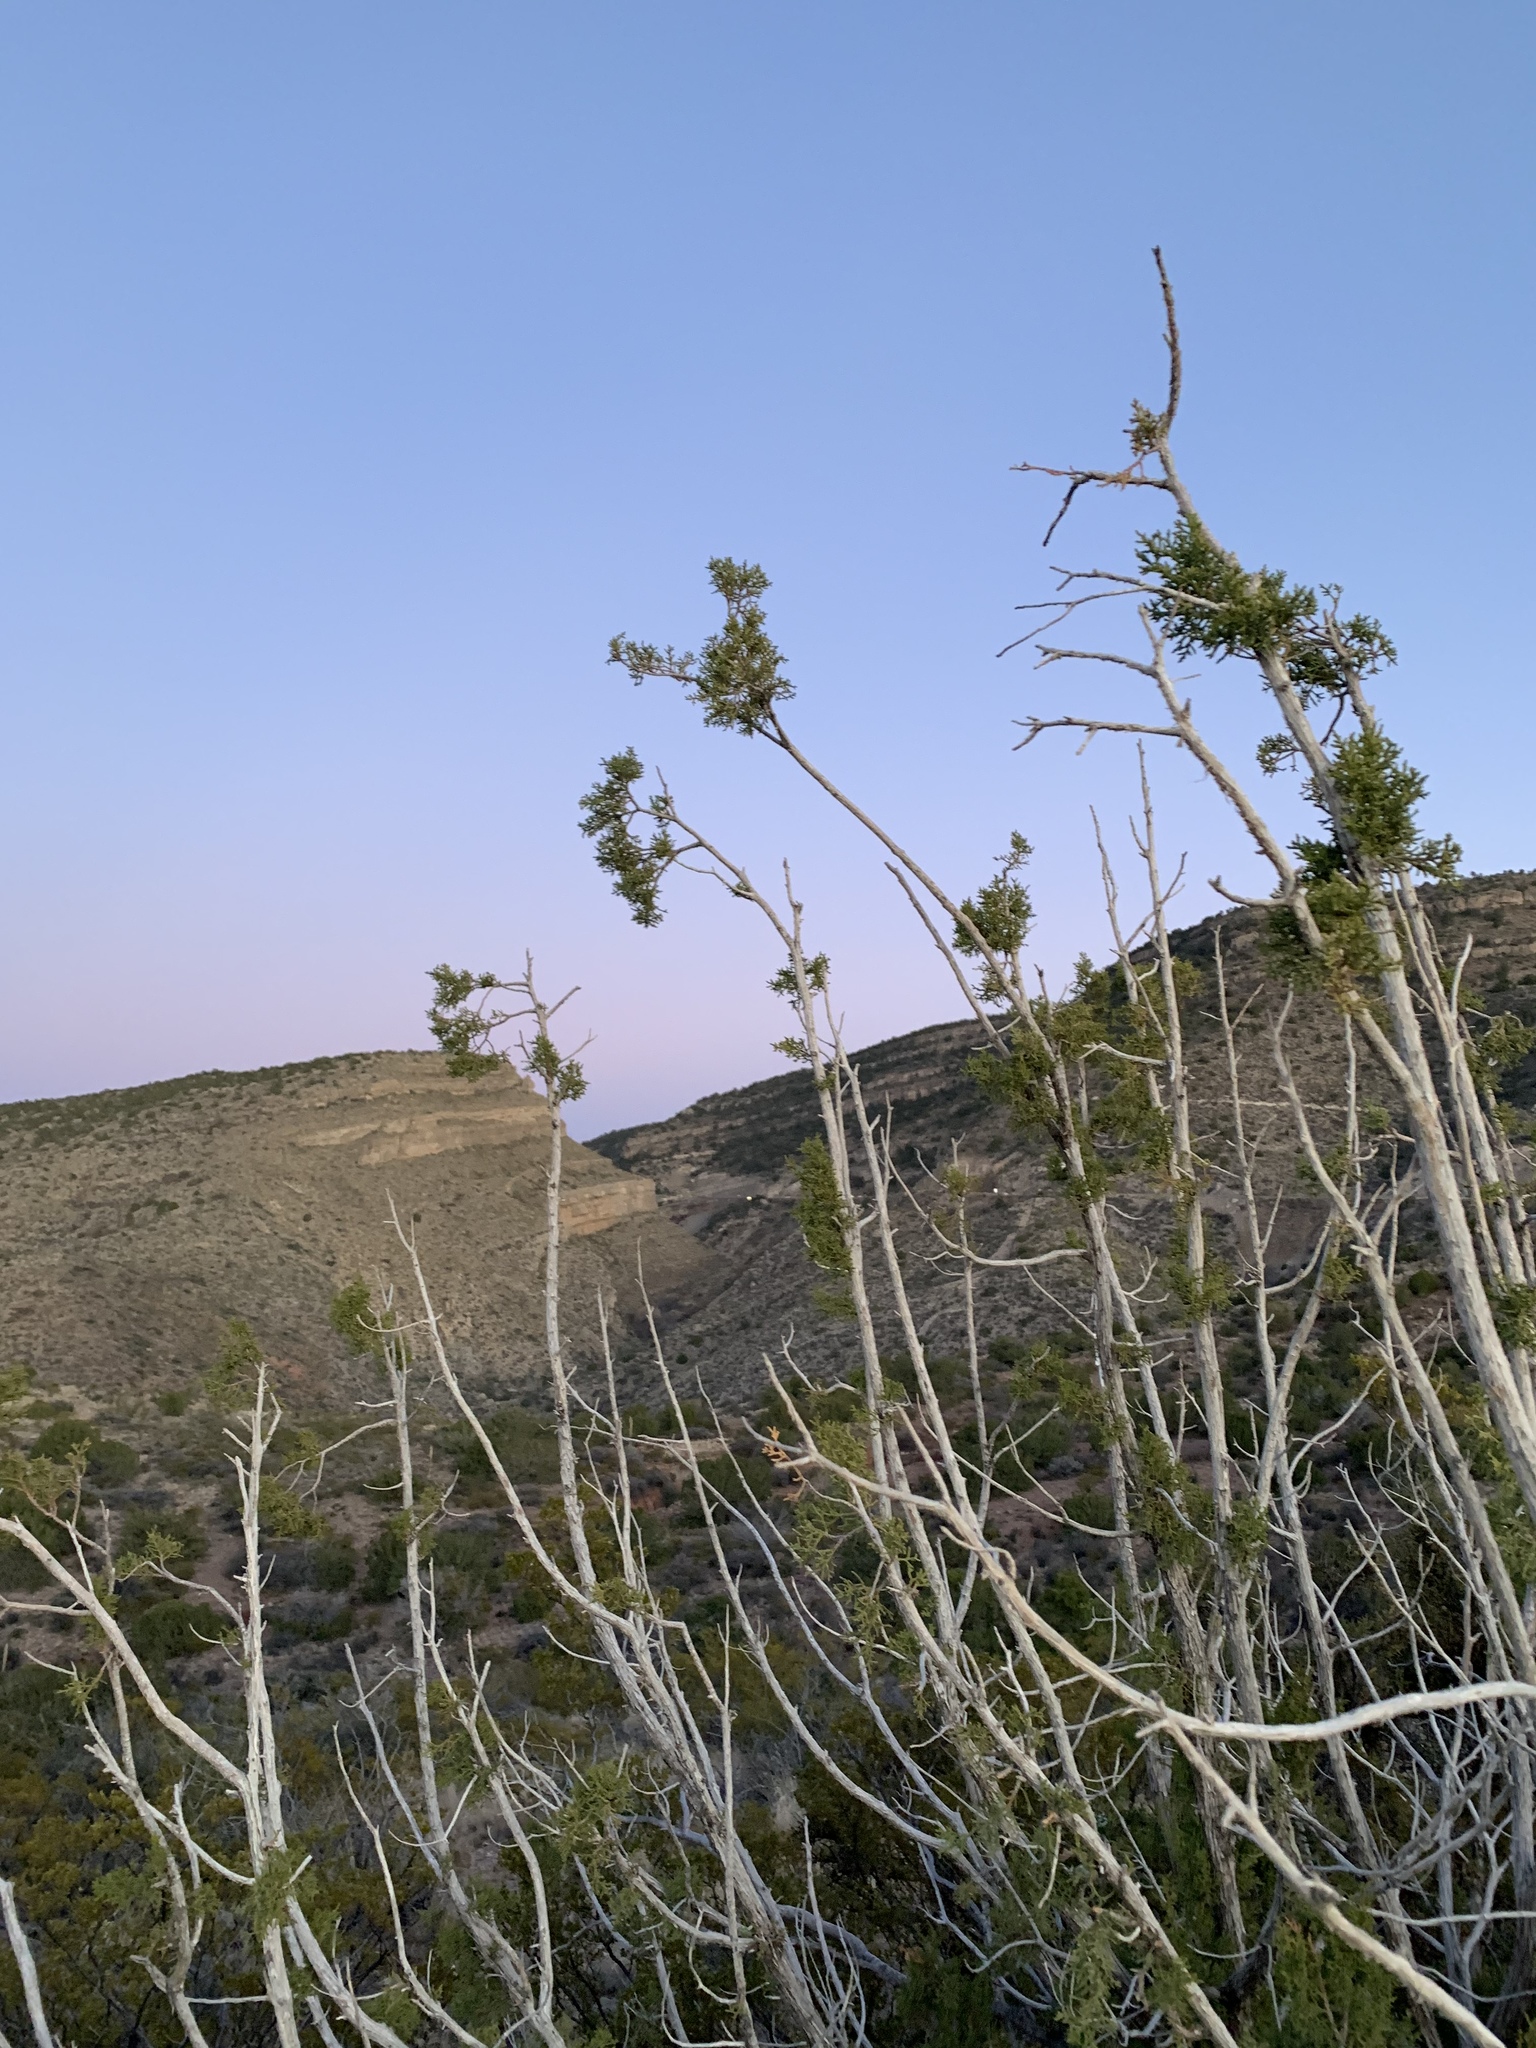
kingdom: Plantae
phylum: Tracheophyta
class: Pinopsida
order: Pinales
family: Cupressaceae
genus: Juniperus
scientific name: Juniperus monosperma
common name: One-seed juniper
